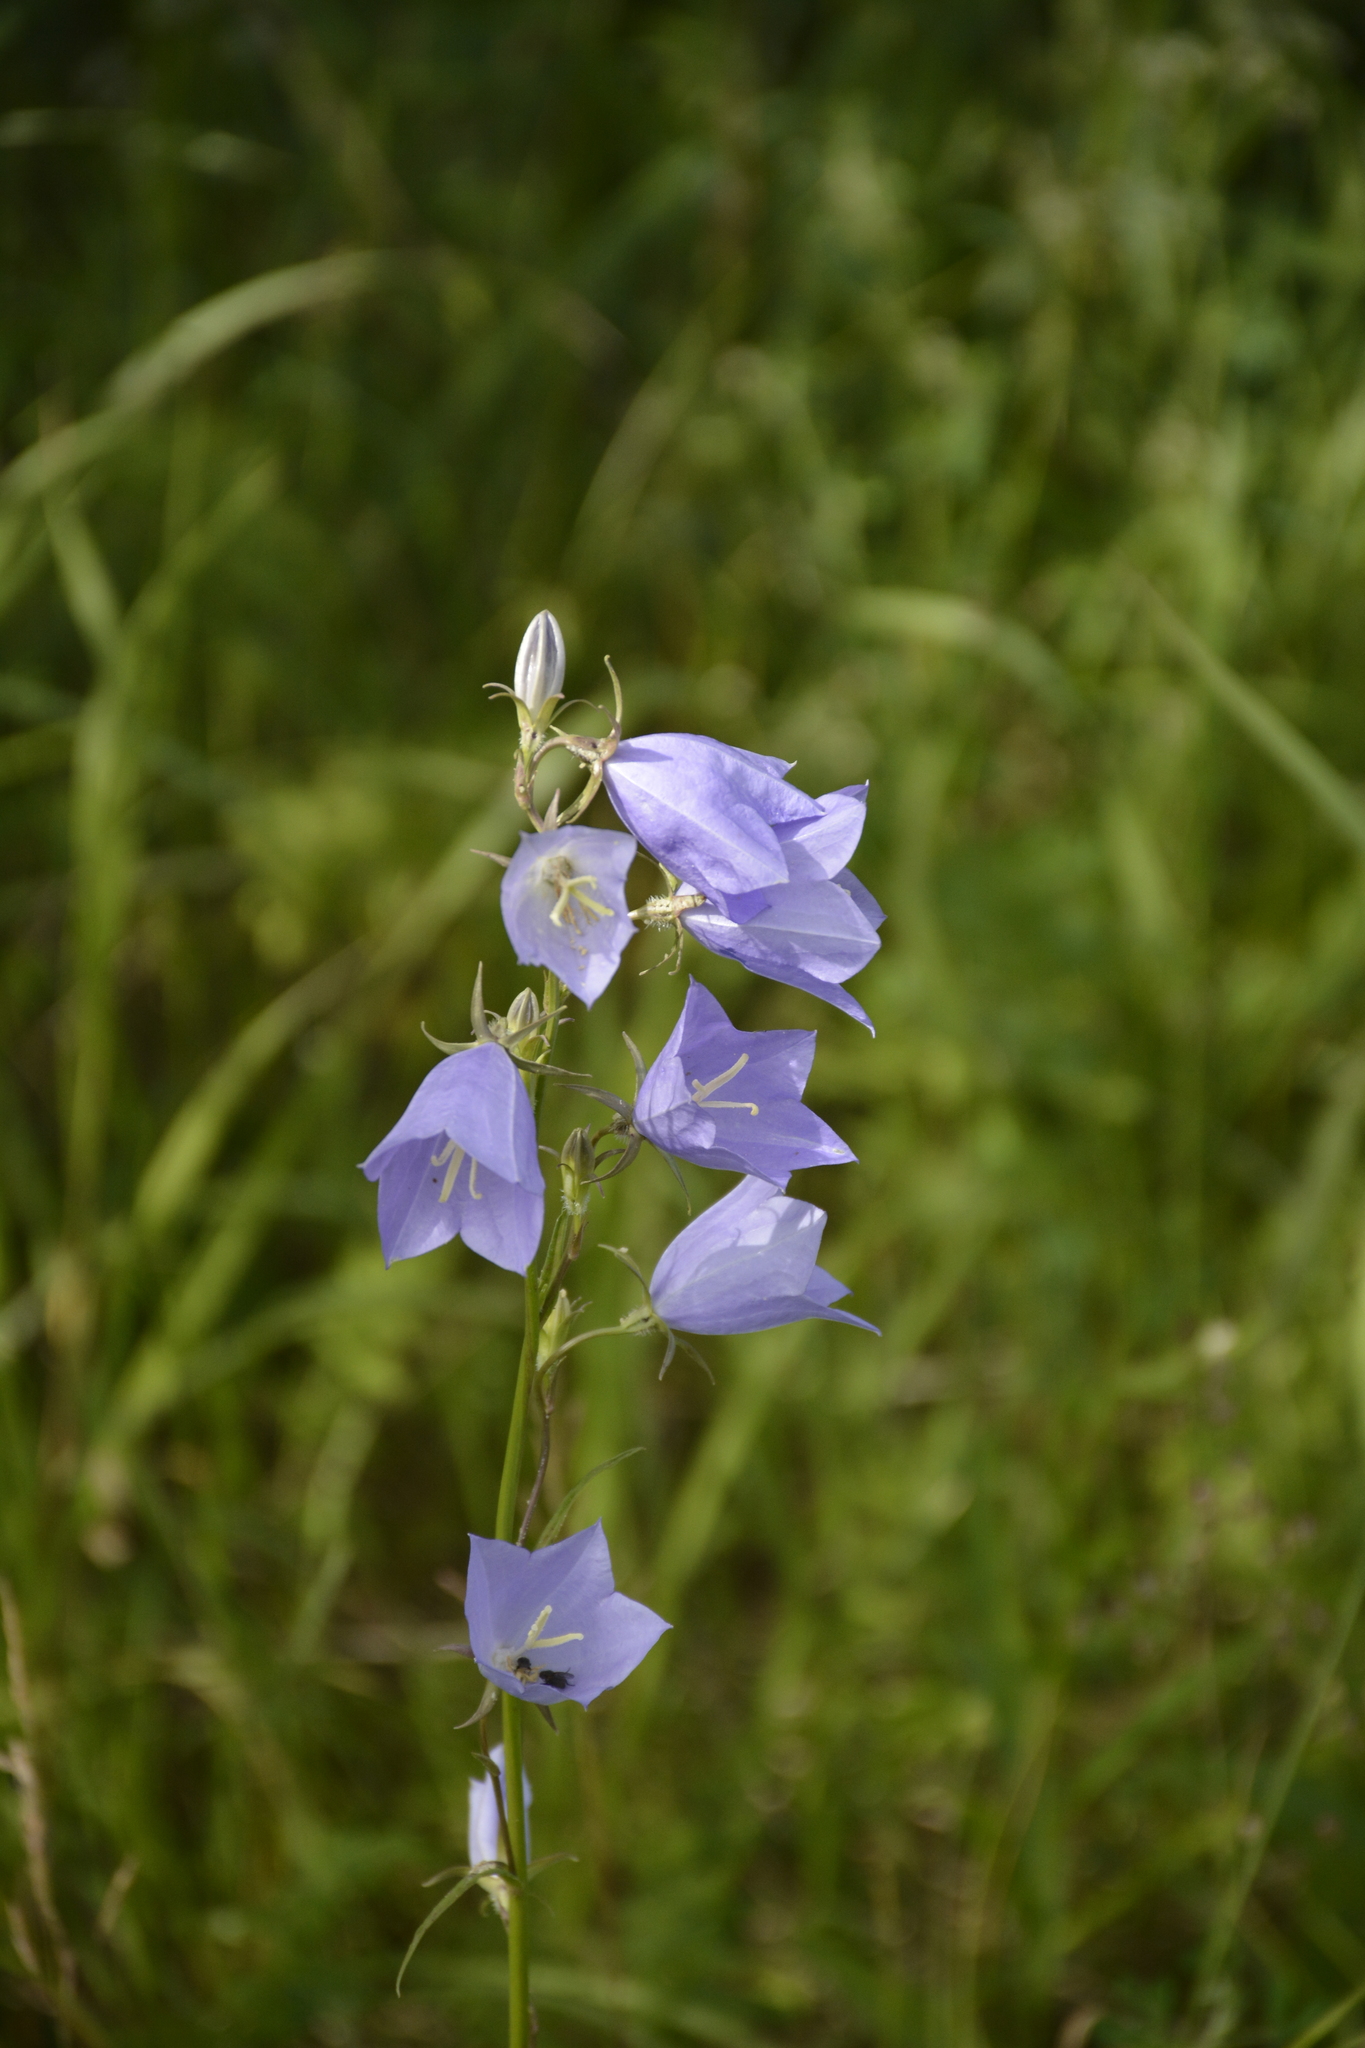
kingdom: Plantae
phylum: Tracheophyta
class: Magnoliopsida
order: Asterales
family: Campanulaceae
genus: Campanula
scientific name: Campanula persicifolia
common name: Peach-leaved bellflower
